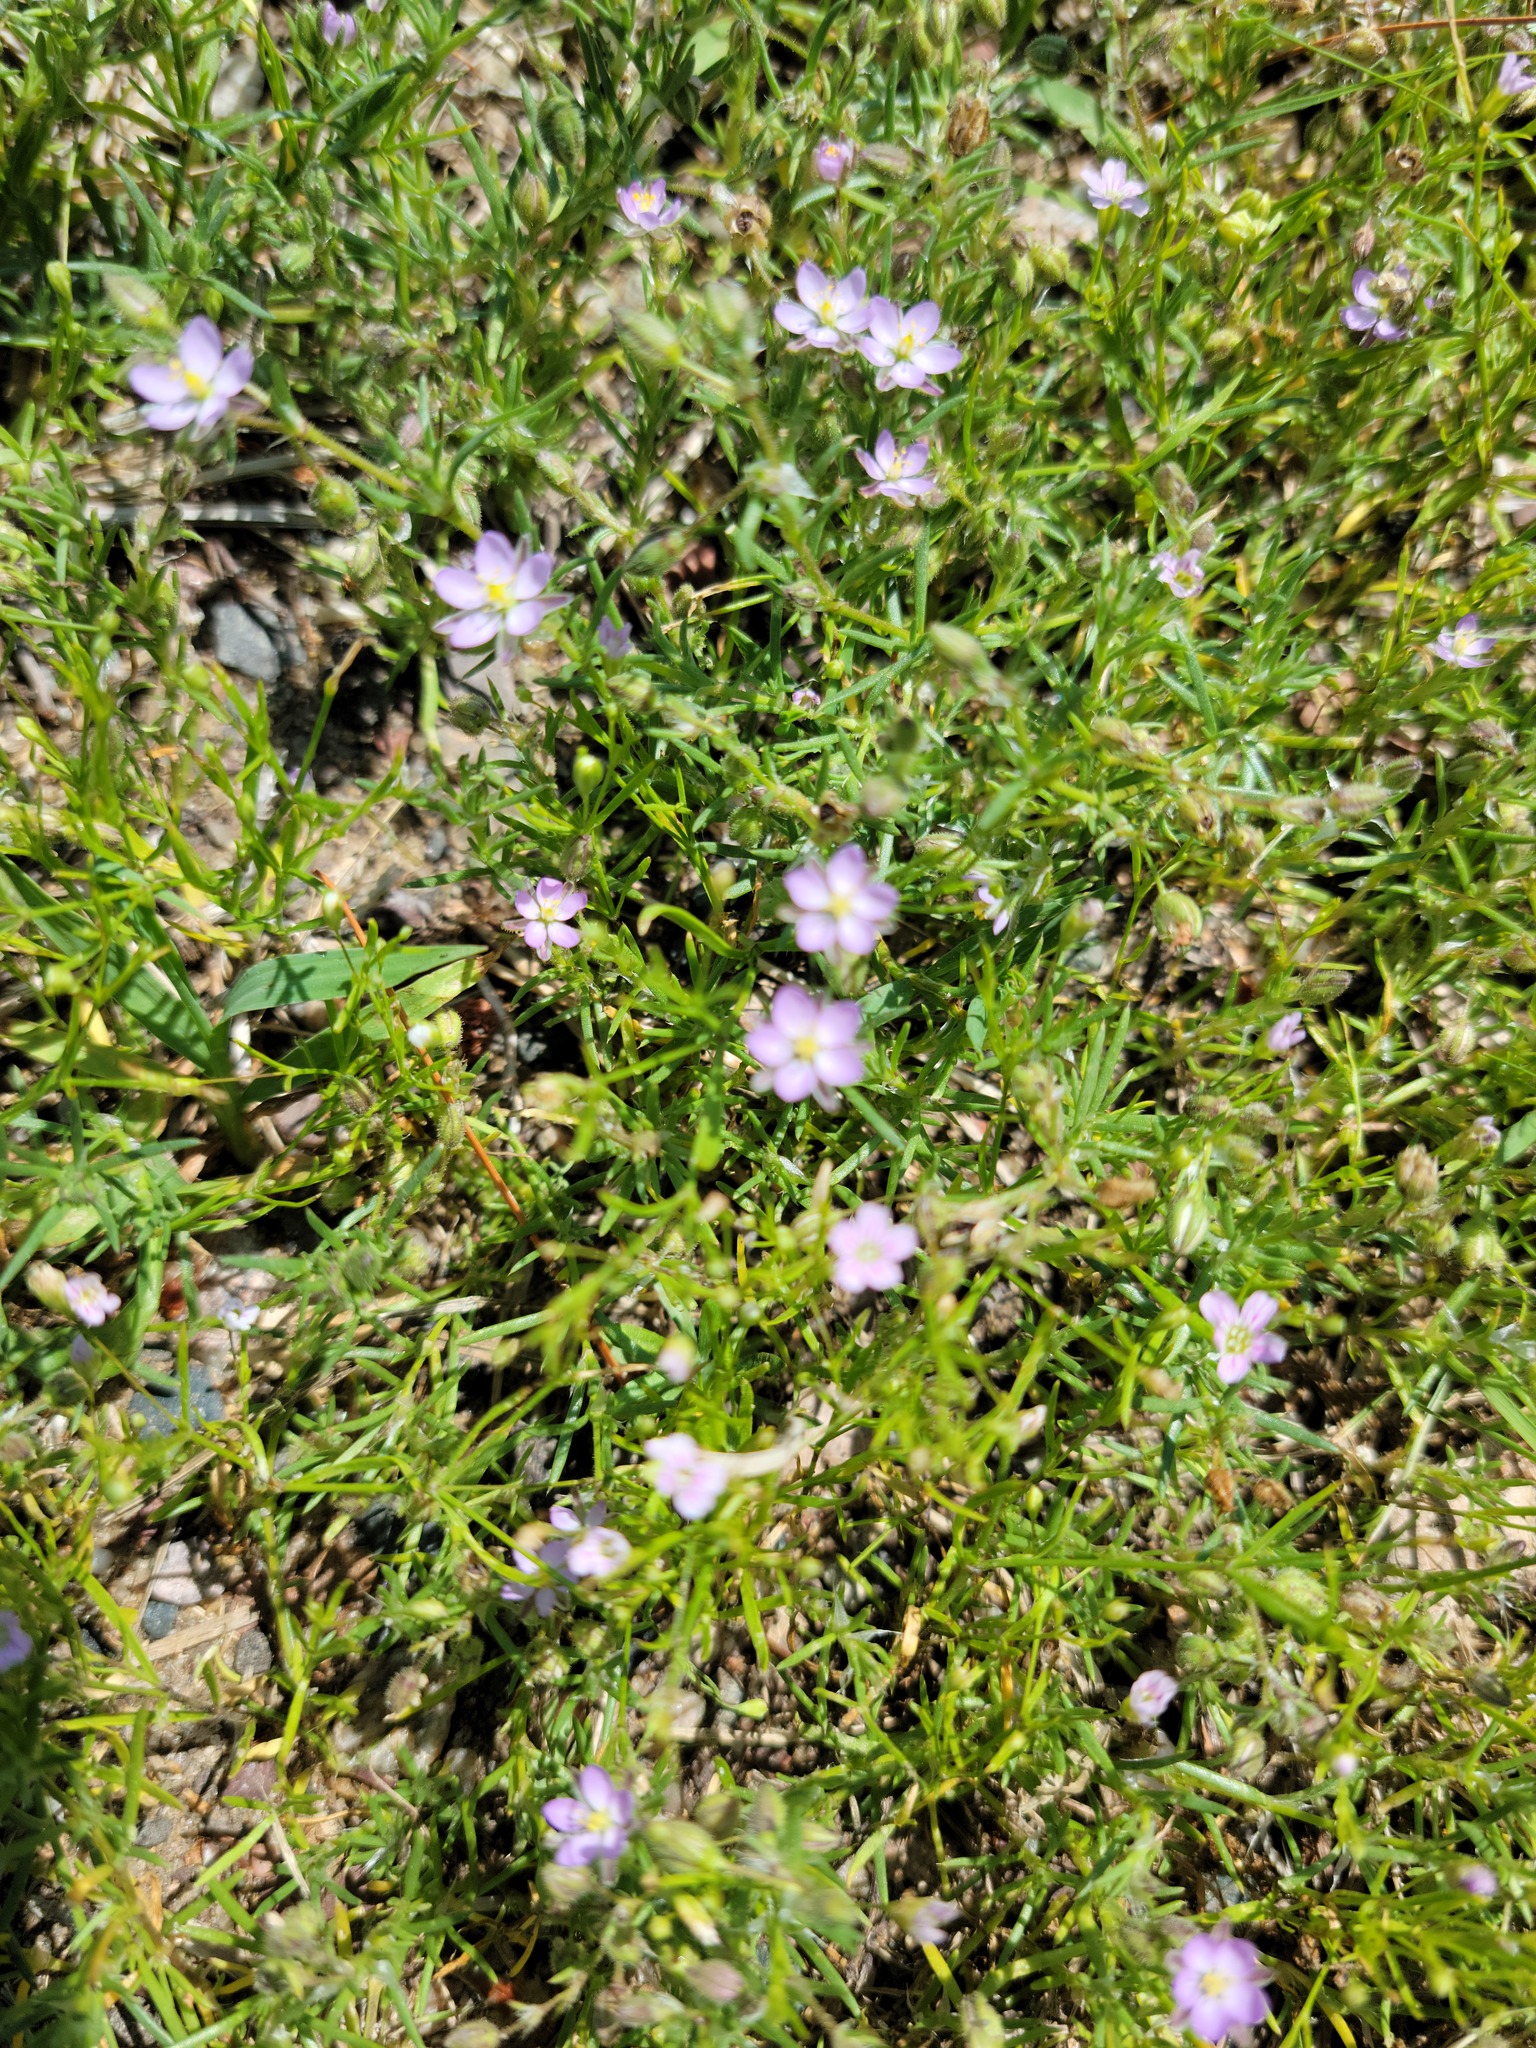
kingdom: Plantae
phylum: Tracheophyta
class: Magnoliopsida
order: Caryophyllales
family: Caryophyllaceae
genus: Spergularia
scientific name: Spergularia rubra
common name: Red sand-spurrey
